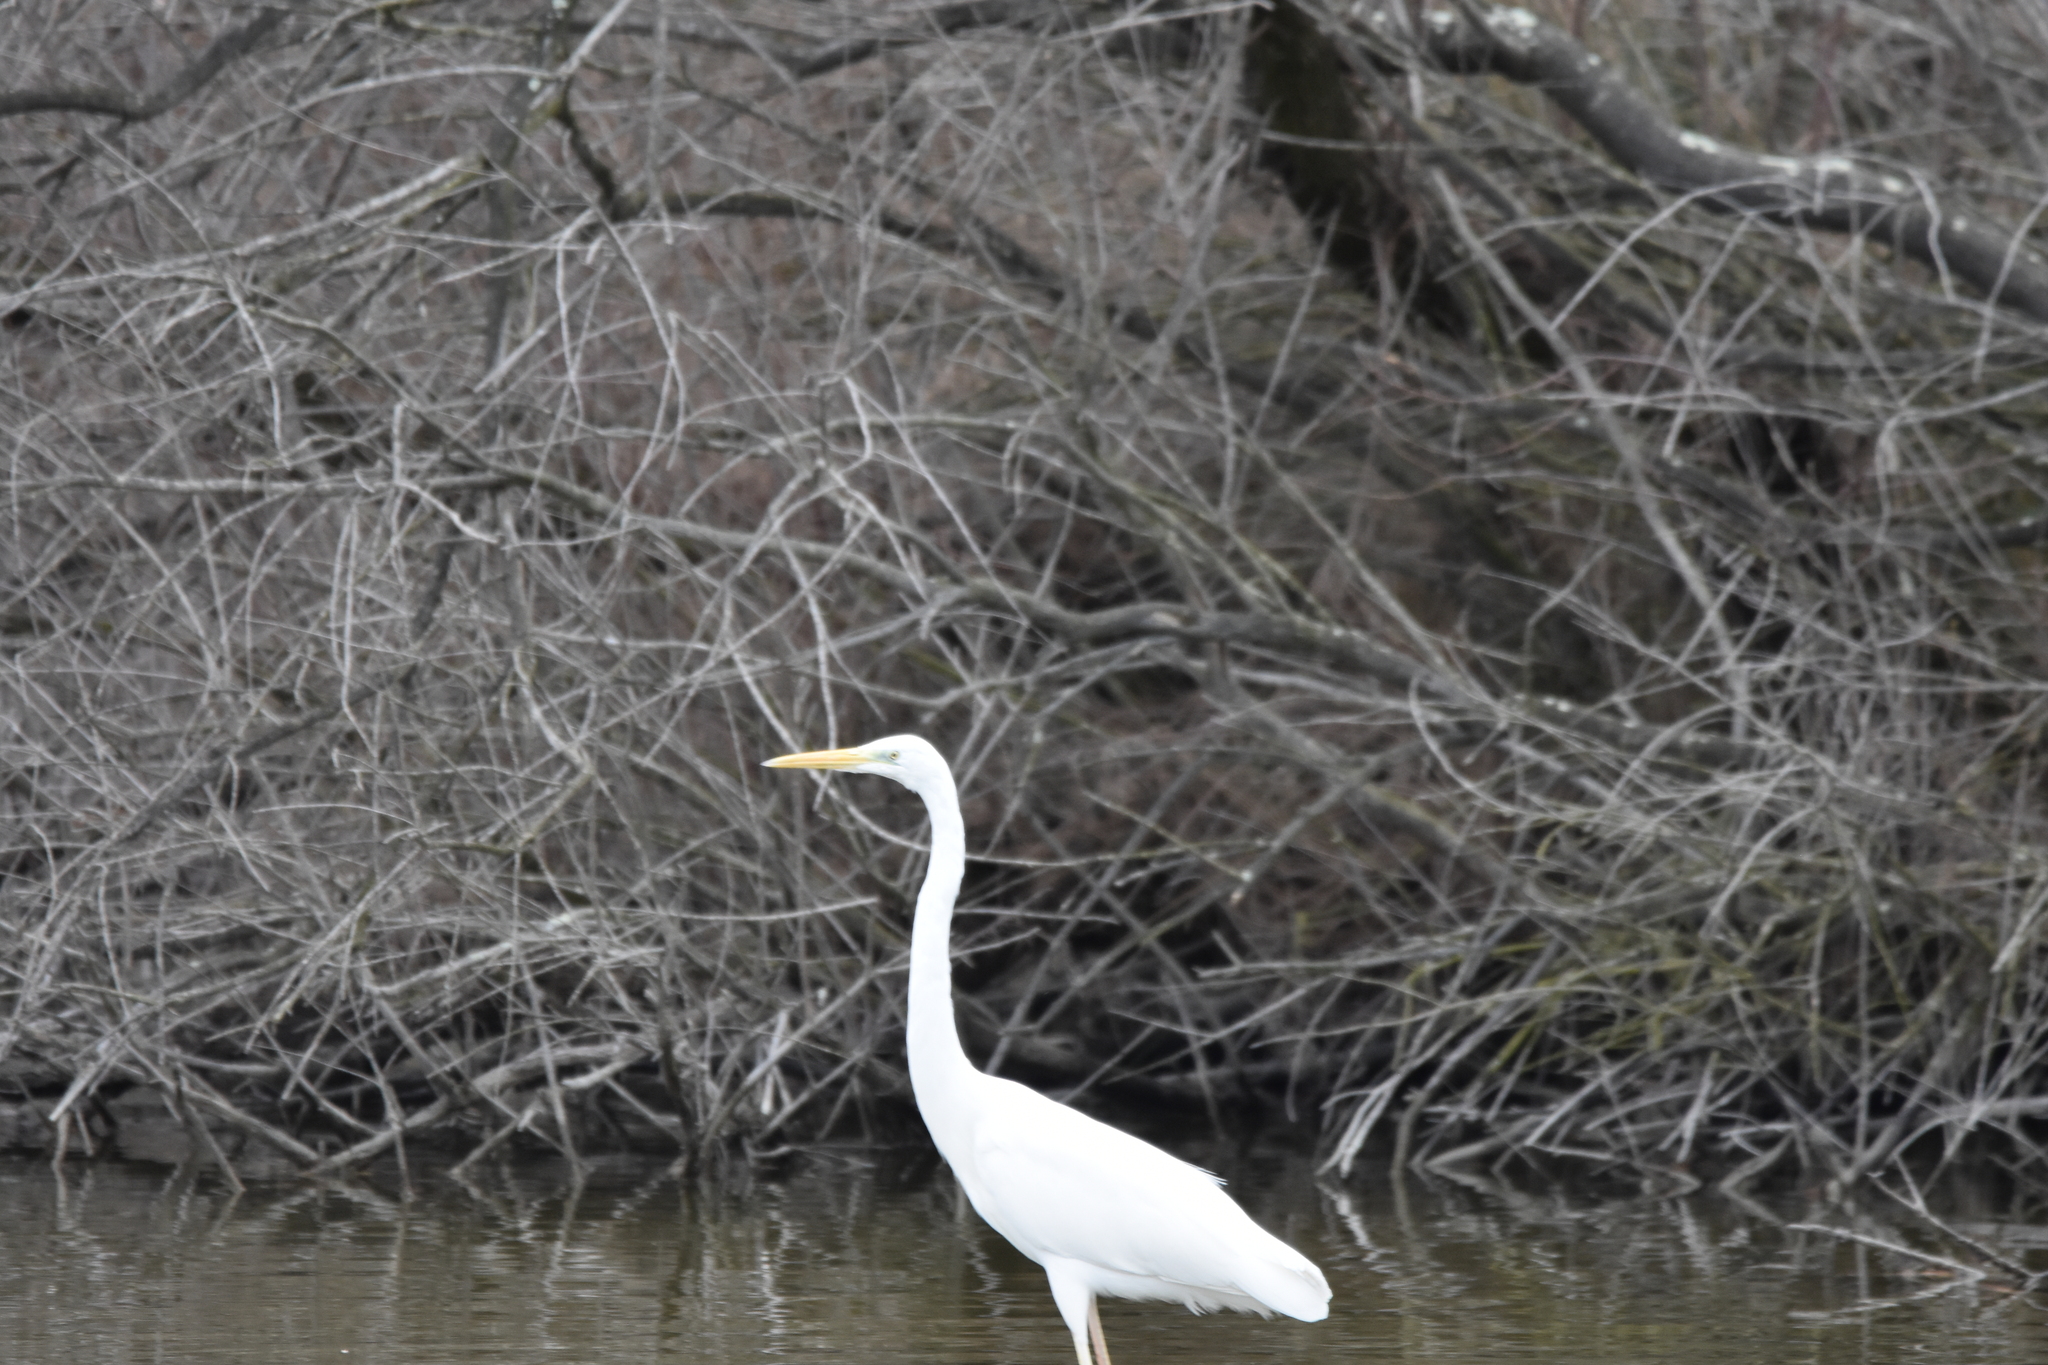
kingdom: Animalia
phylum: Chordata
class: Aves
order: Pelecaniformes
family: Ardeidae
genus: Ardea
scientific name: Ardea alba
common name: Great egret
